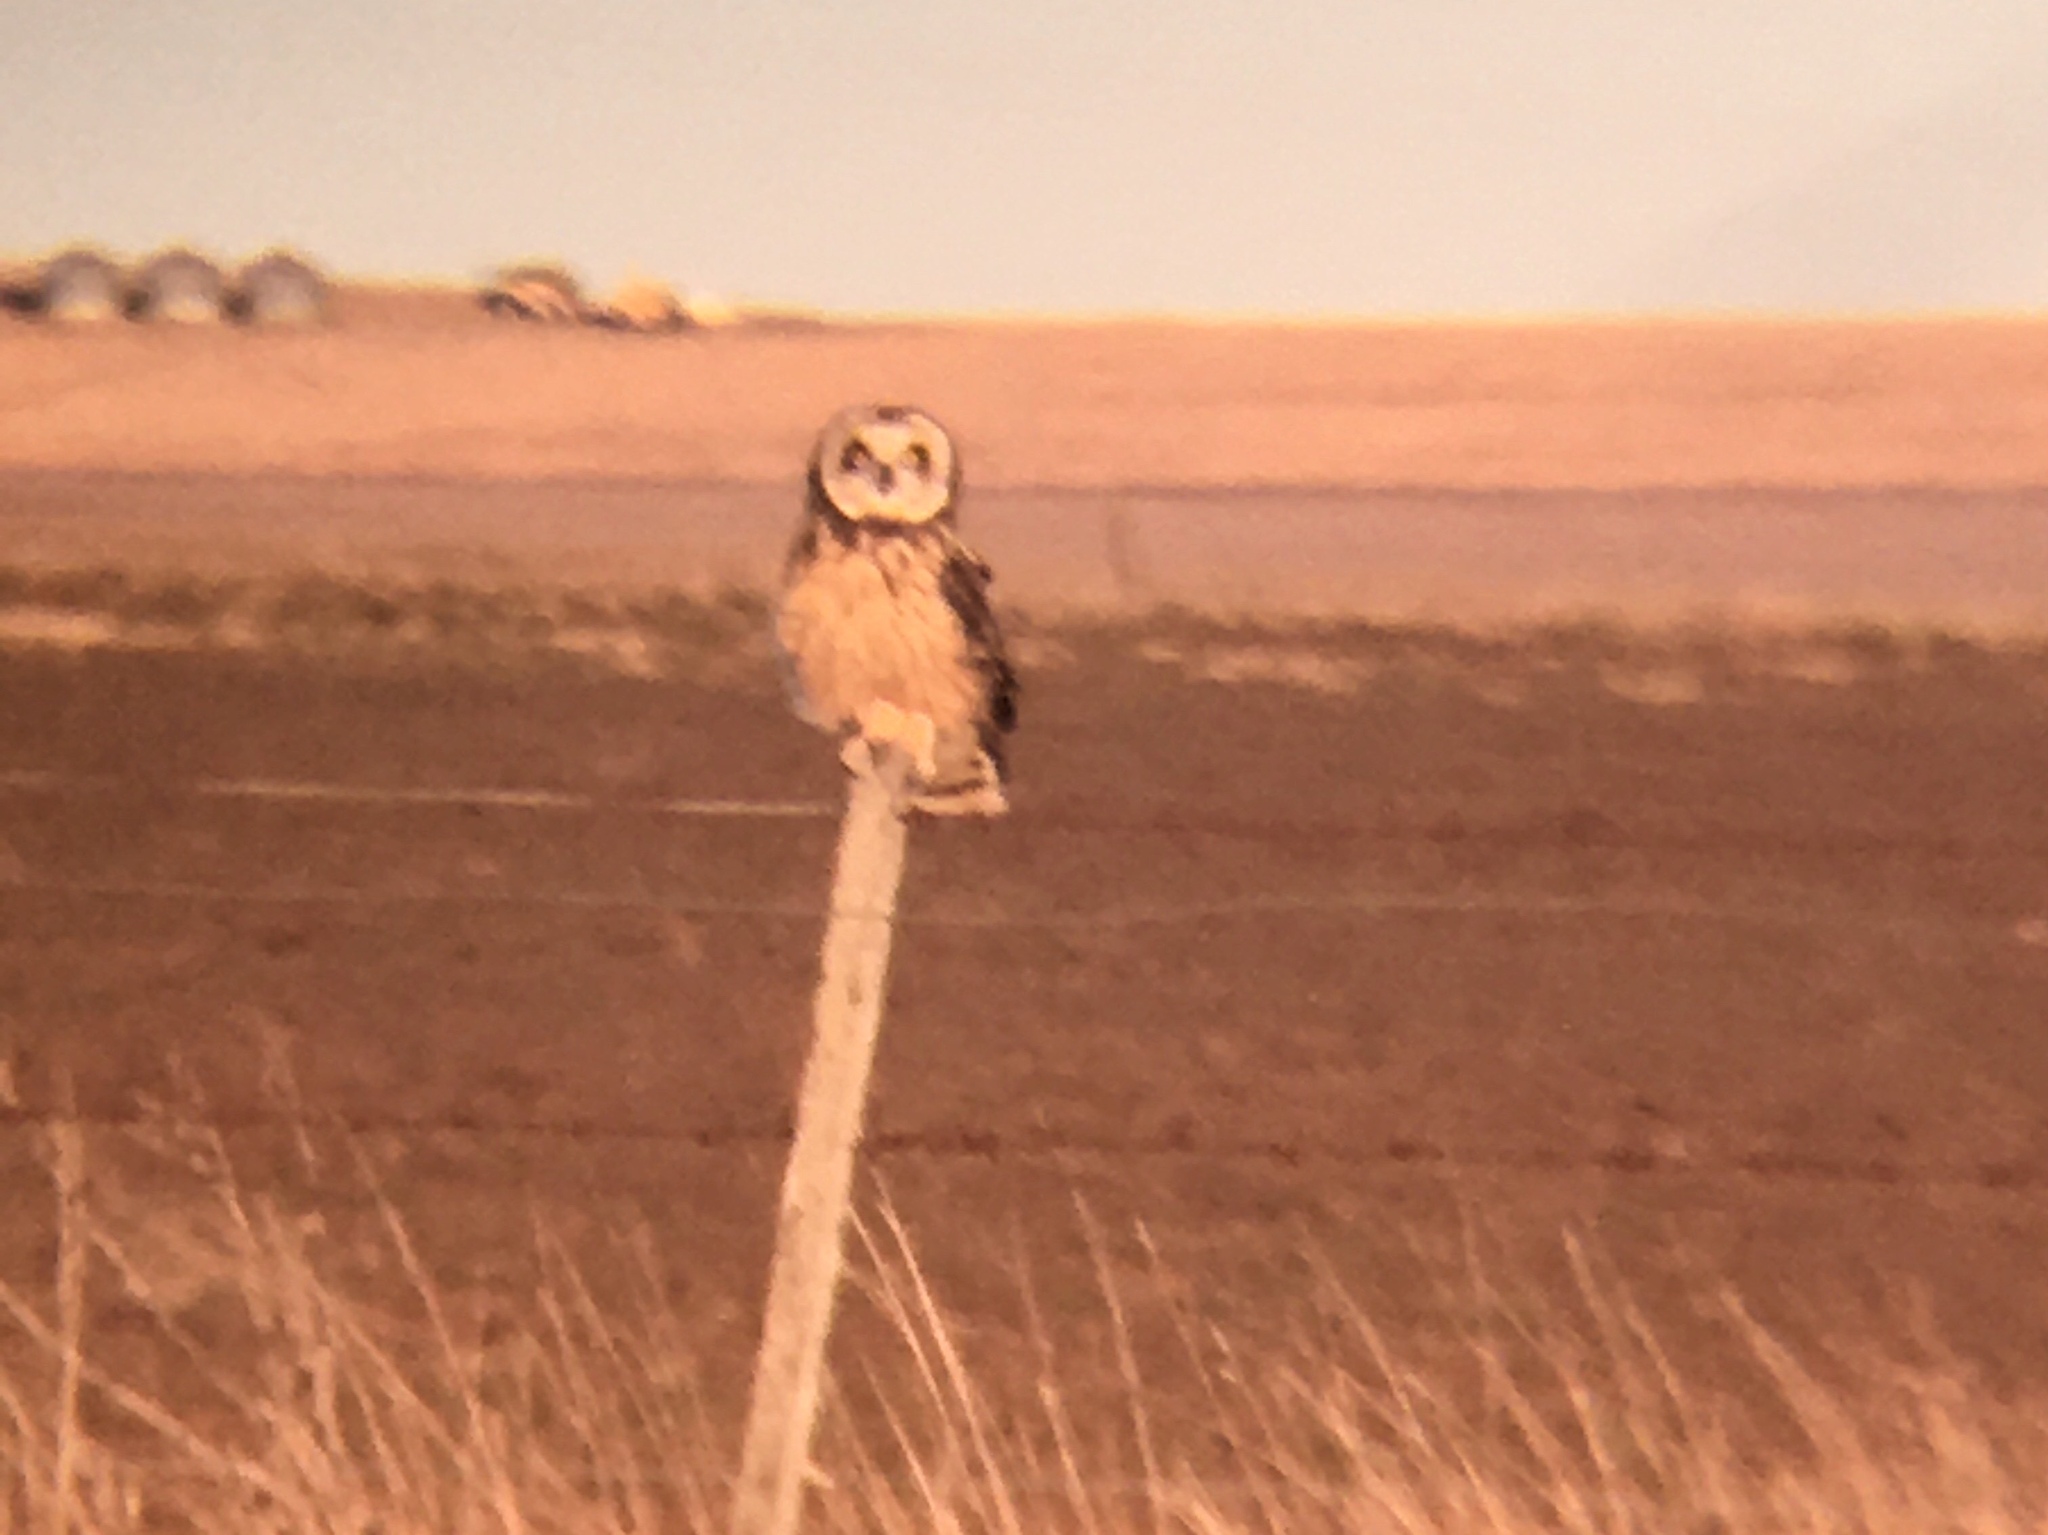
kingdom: Animalia
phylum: Chordata
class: Aves
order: Strigiformes
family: Strigidae
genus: Asio
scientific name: Asio flammeus
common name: Short-eared owl
